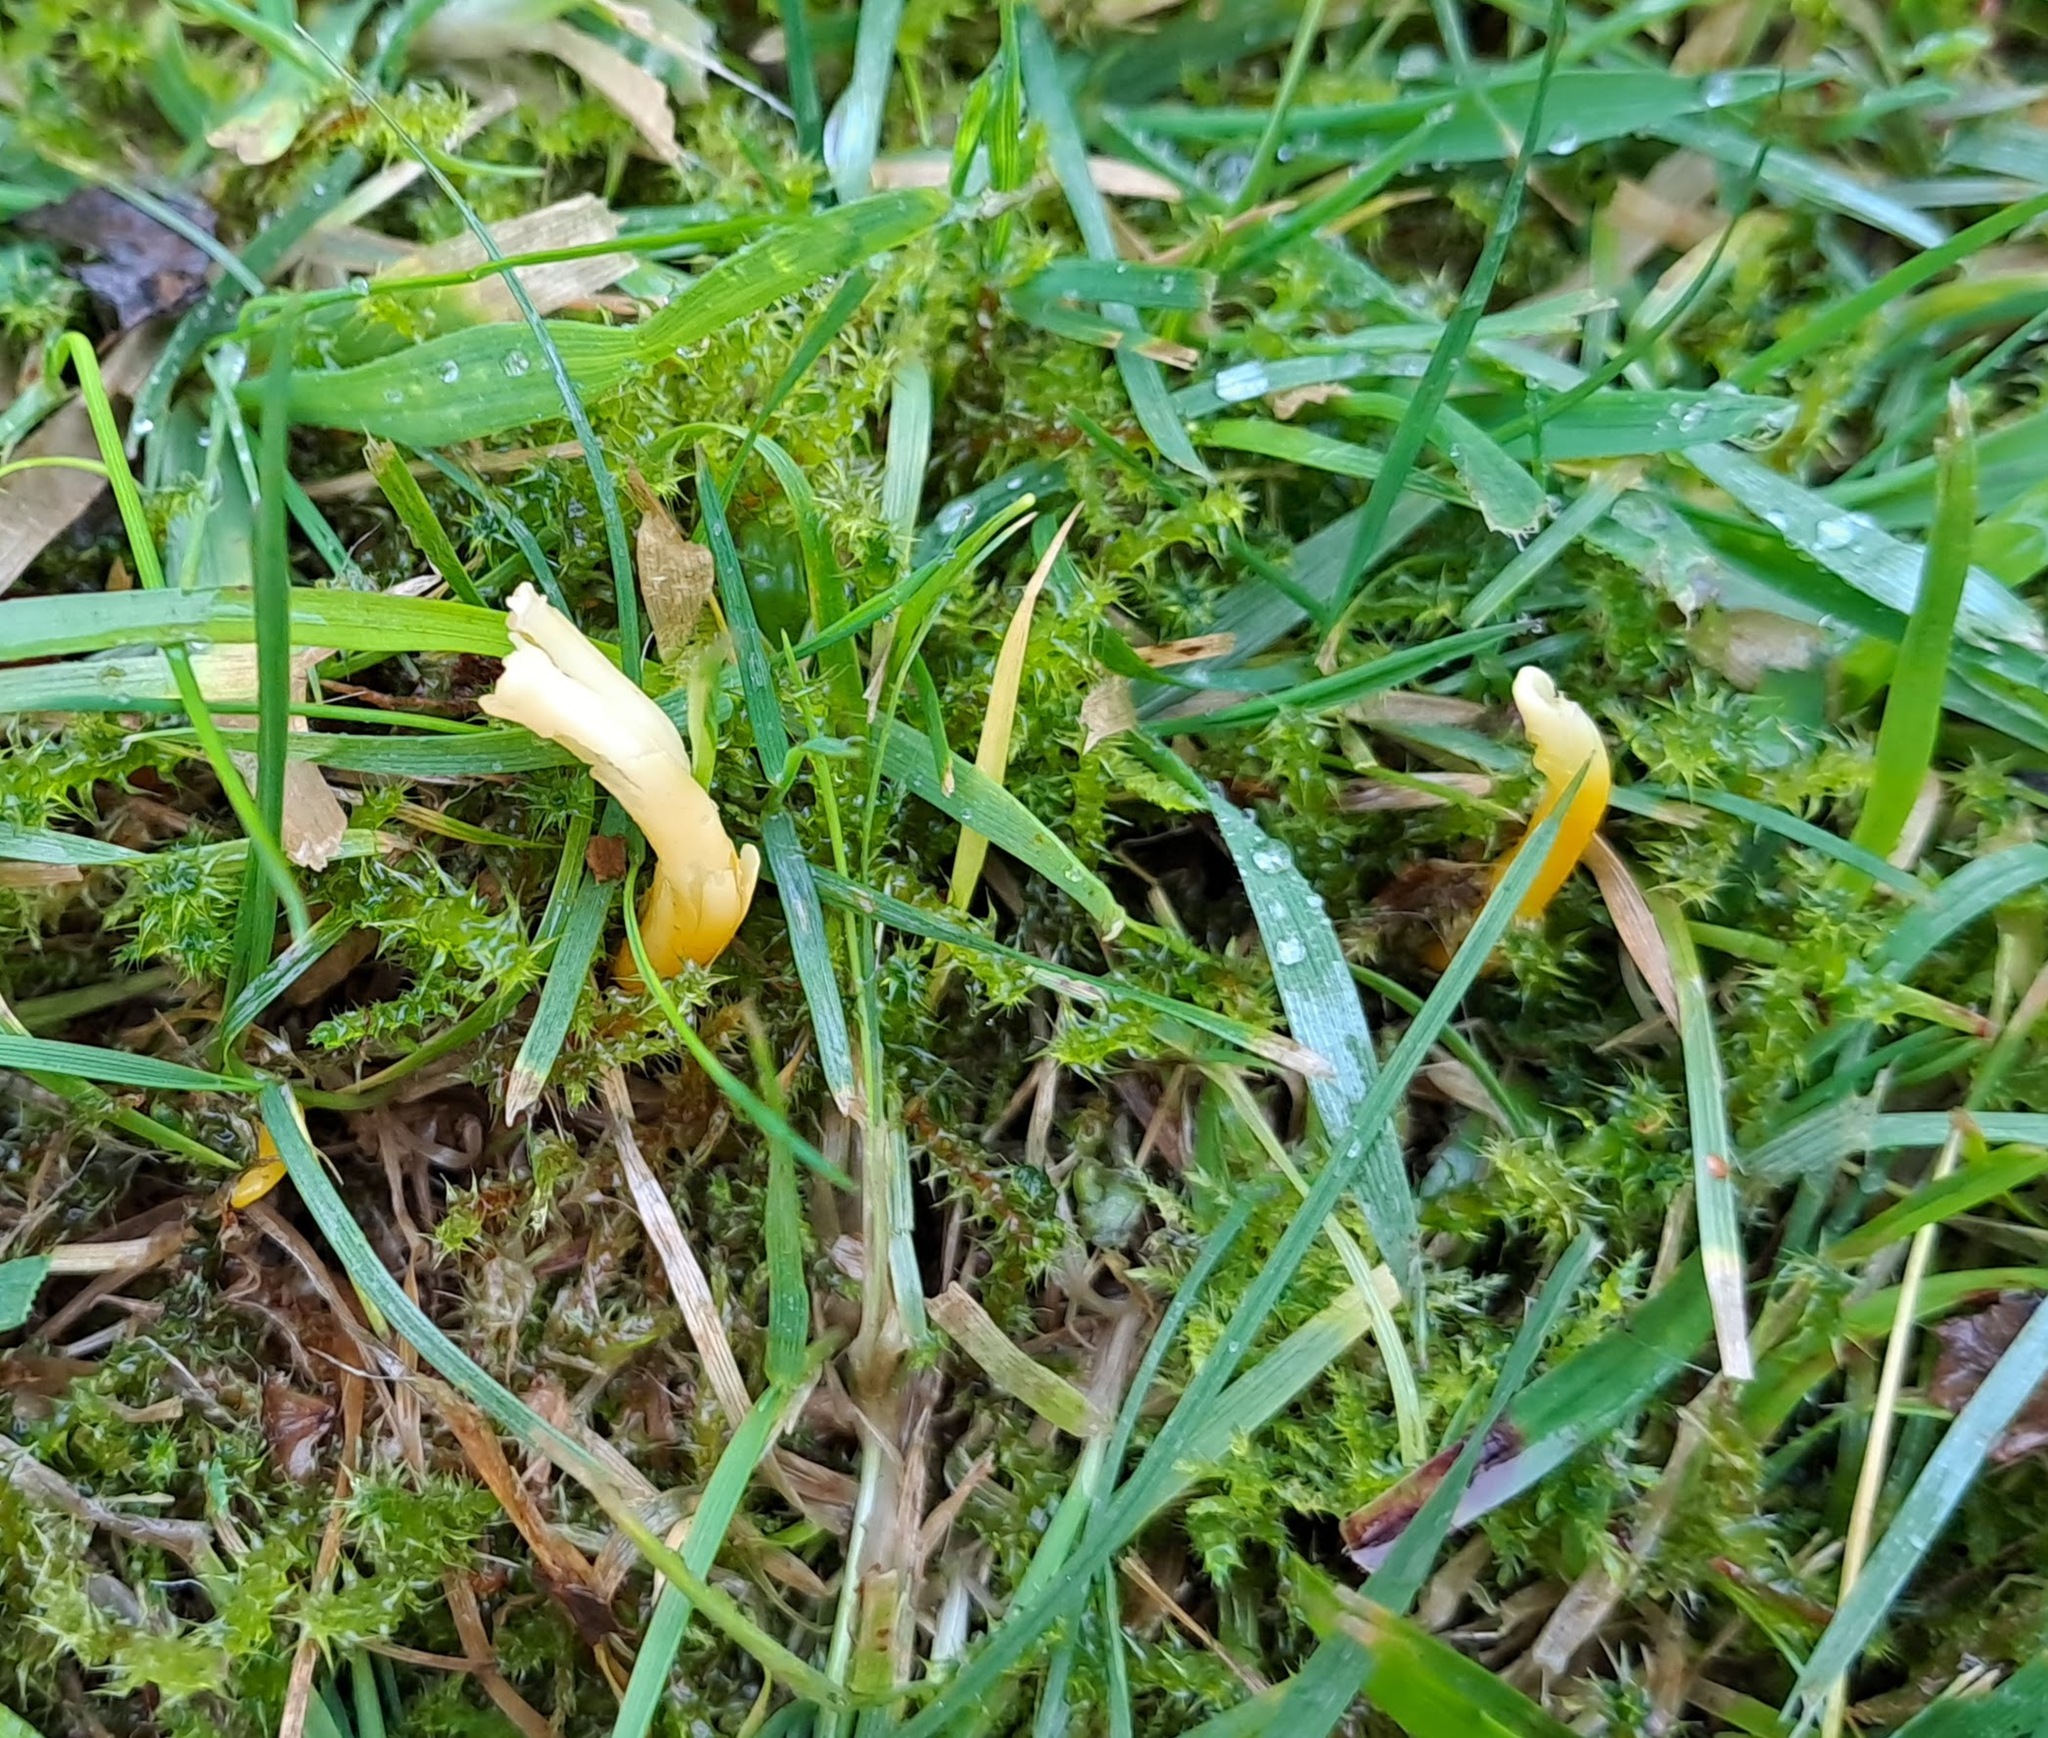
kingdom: Fungi
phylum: Basidiomycota
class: Agaricomycetes
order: Agaricales
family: Clavariaceae
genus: Clavulinopsis
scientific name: Clavulinopsis helvola
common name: Yellow club
